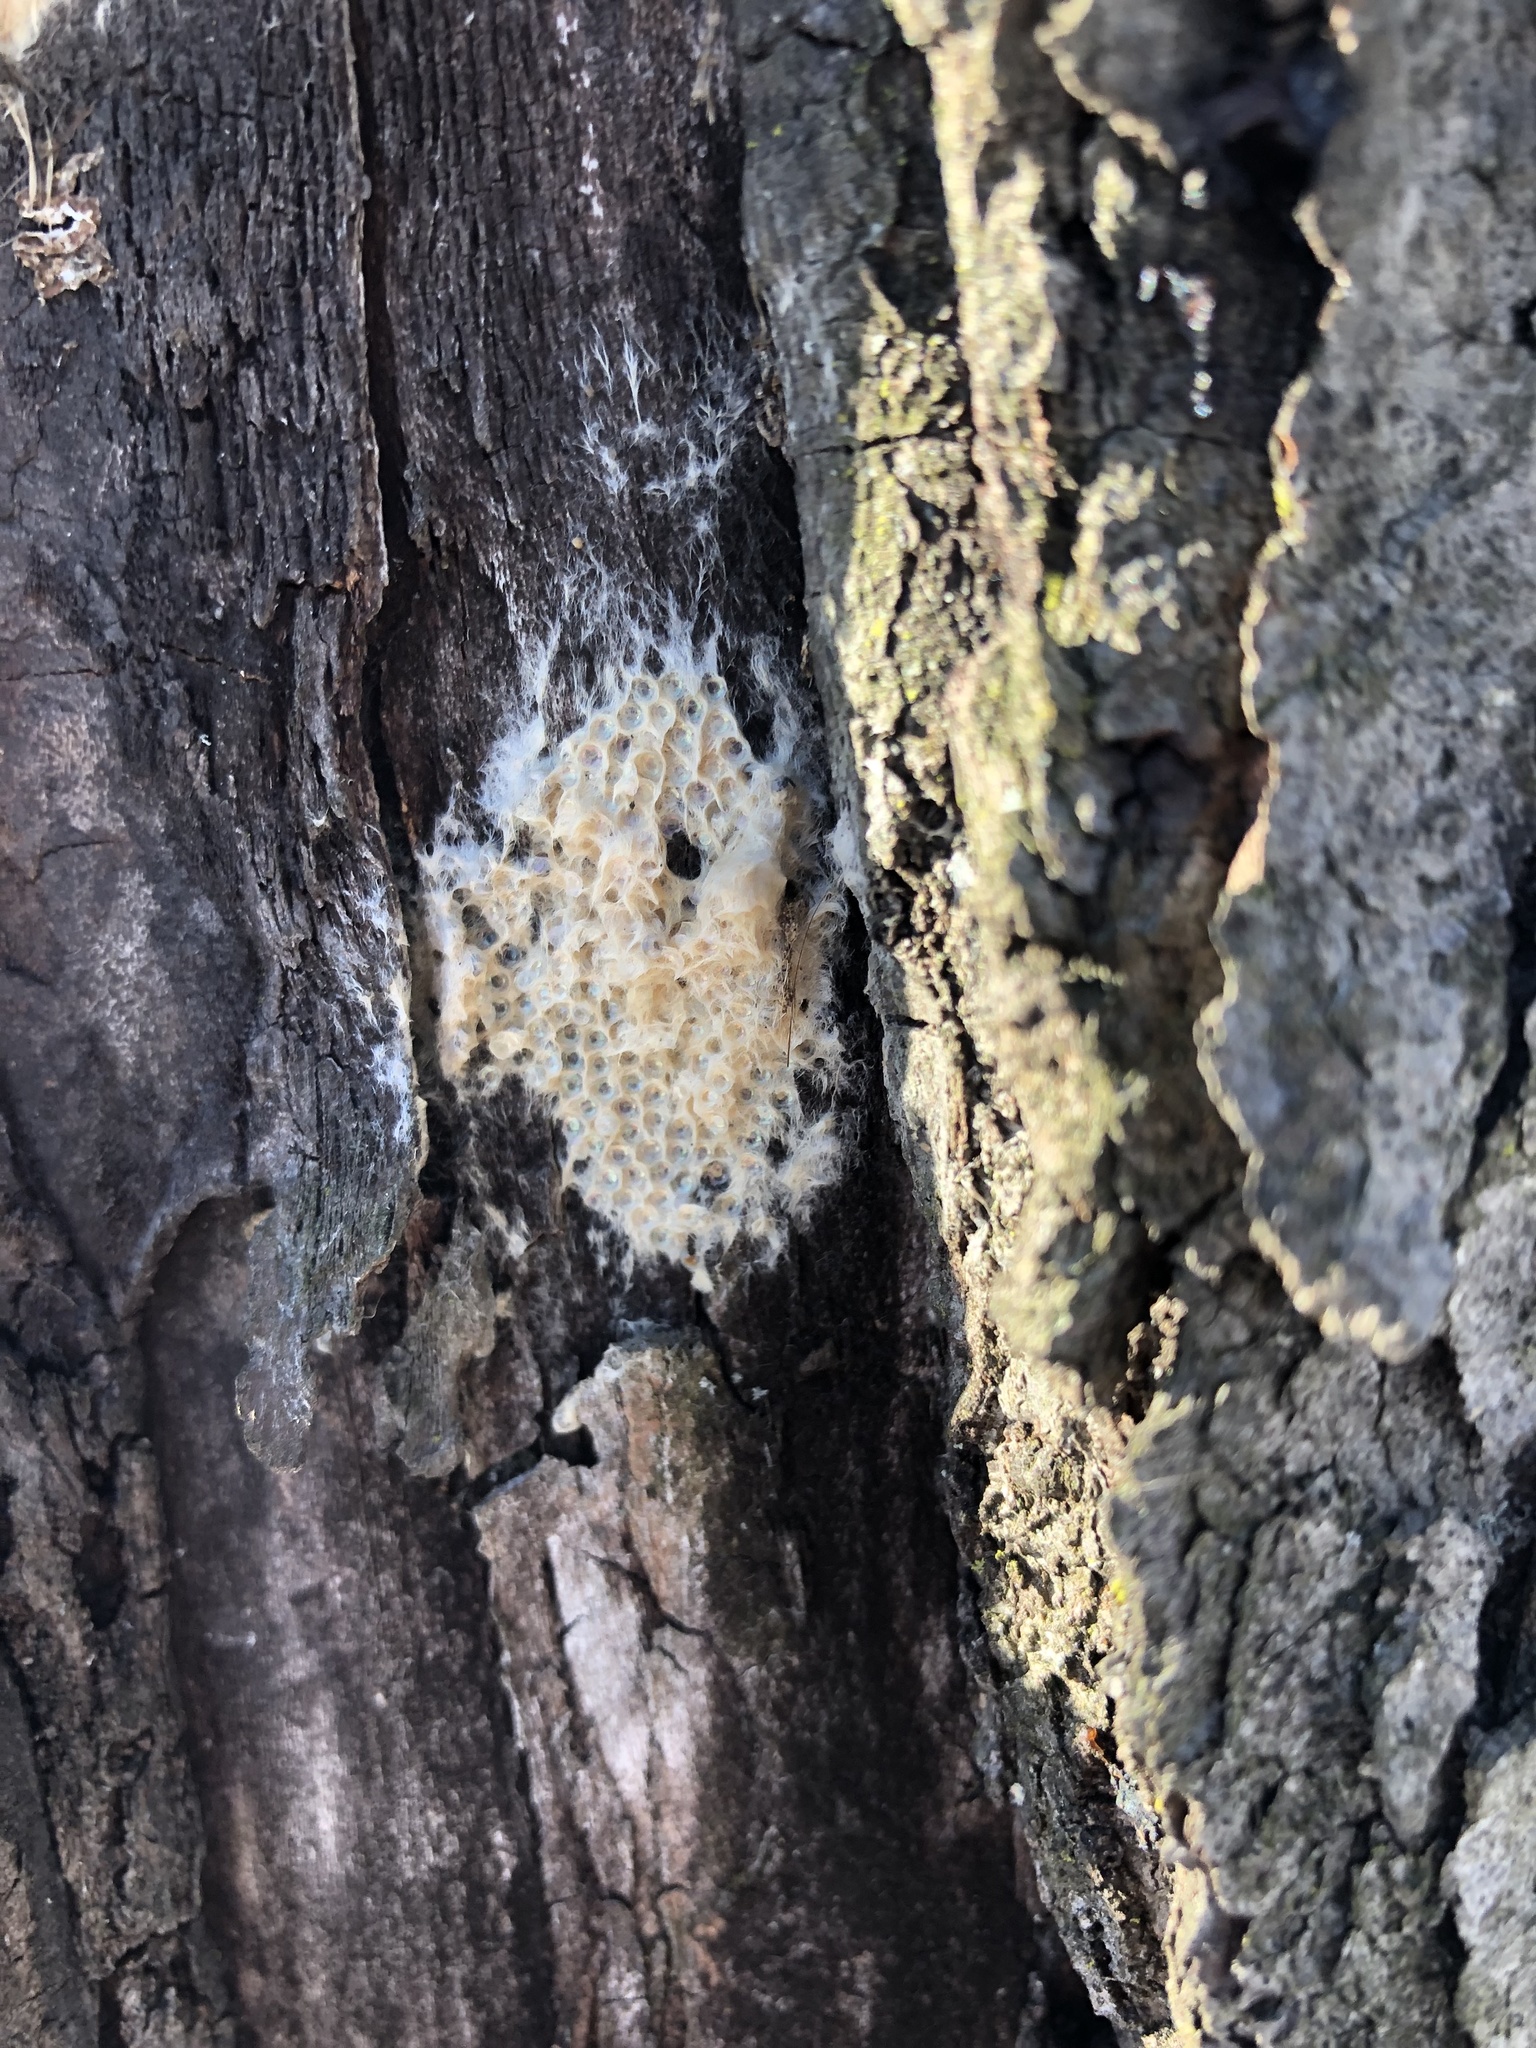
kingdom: Animalia
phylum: Arthropoda
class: Insecta
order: Lepidoptera
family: Erebidae
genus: Lymantria
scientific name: Lymantria dispar
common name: Gypsy moth
